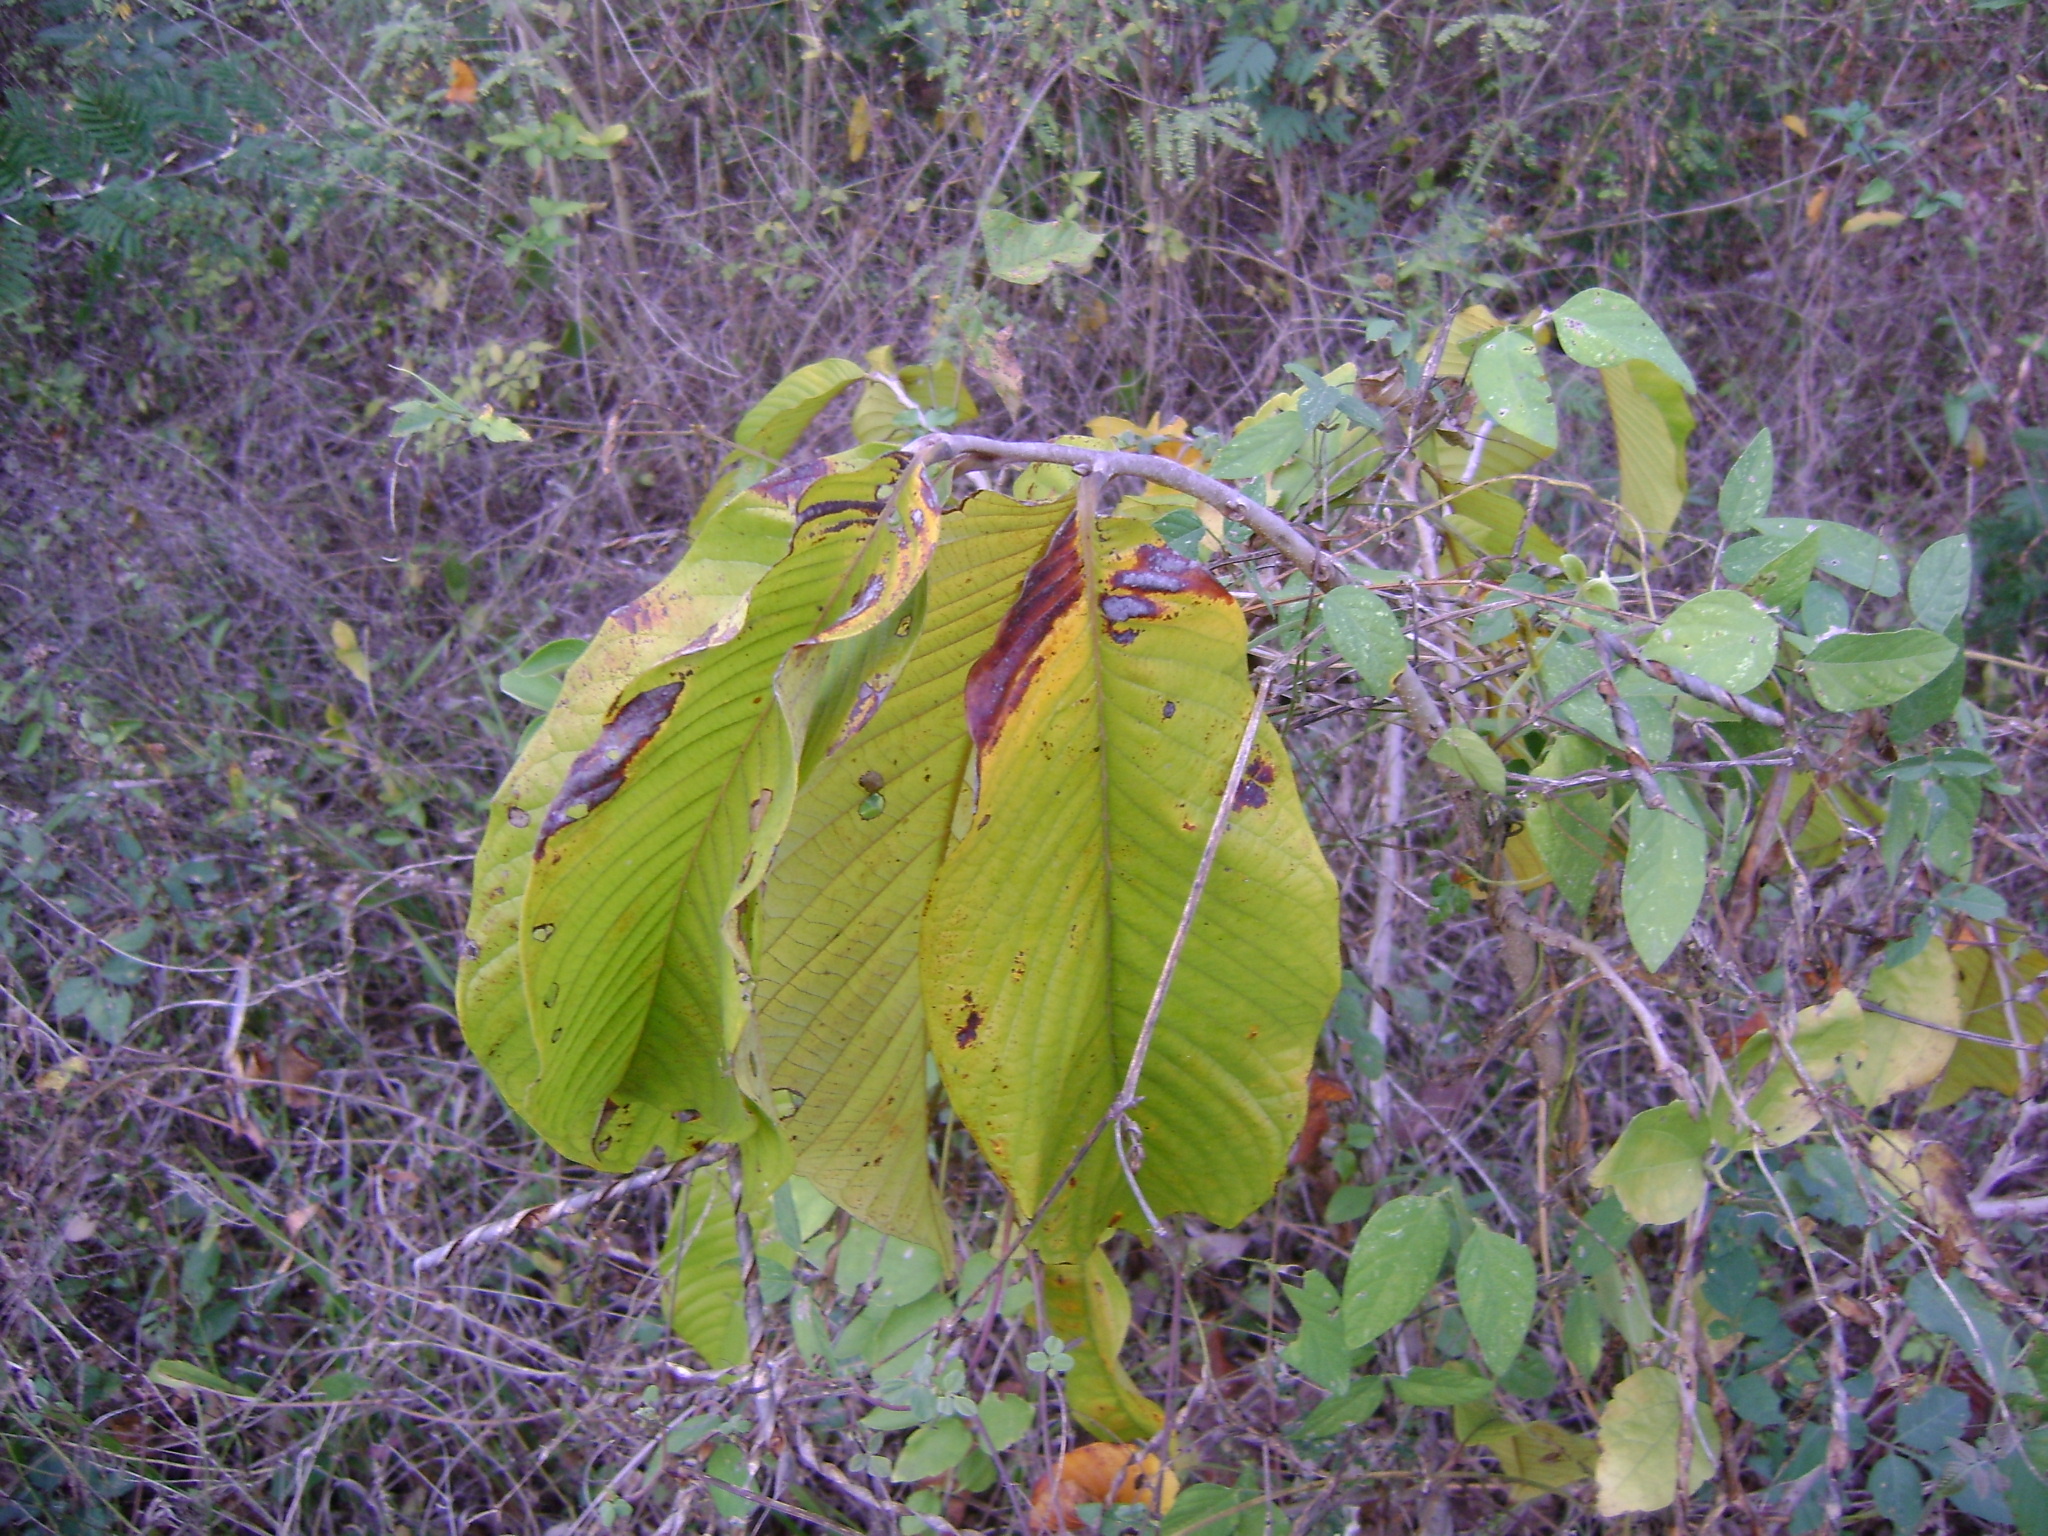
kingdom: Plantae
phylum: Tracheophyta
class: Magnoliopsida
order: Magnoliales
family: Annonaceae
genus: Annona
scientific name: Annona purpurea
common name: Negrohead
